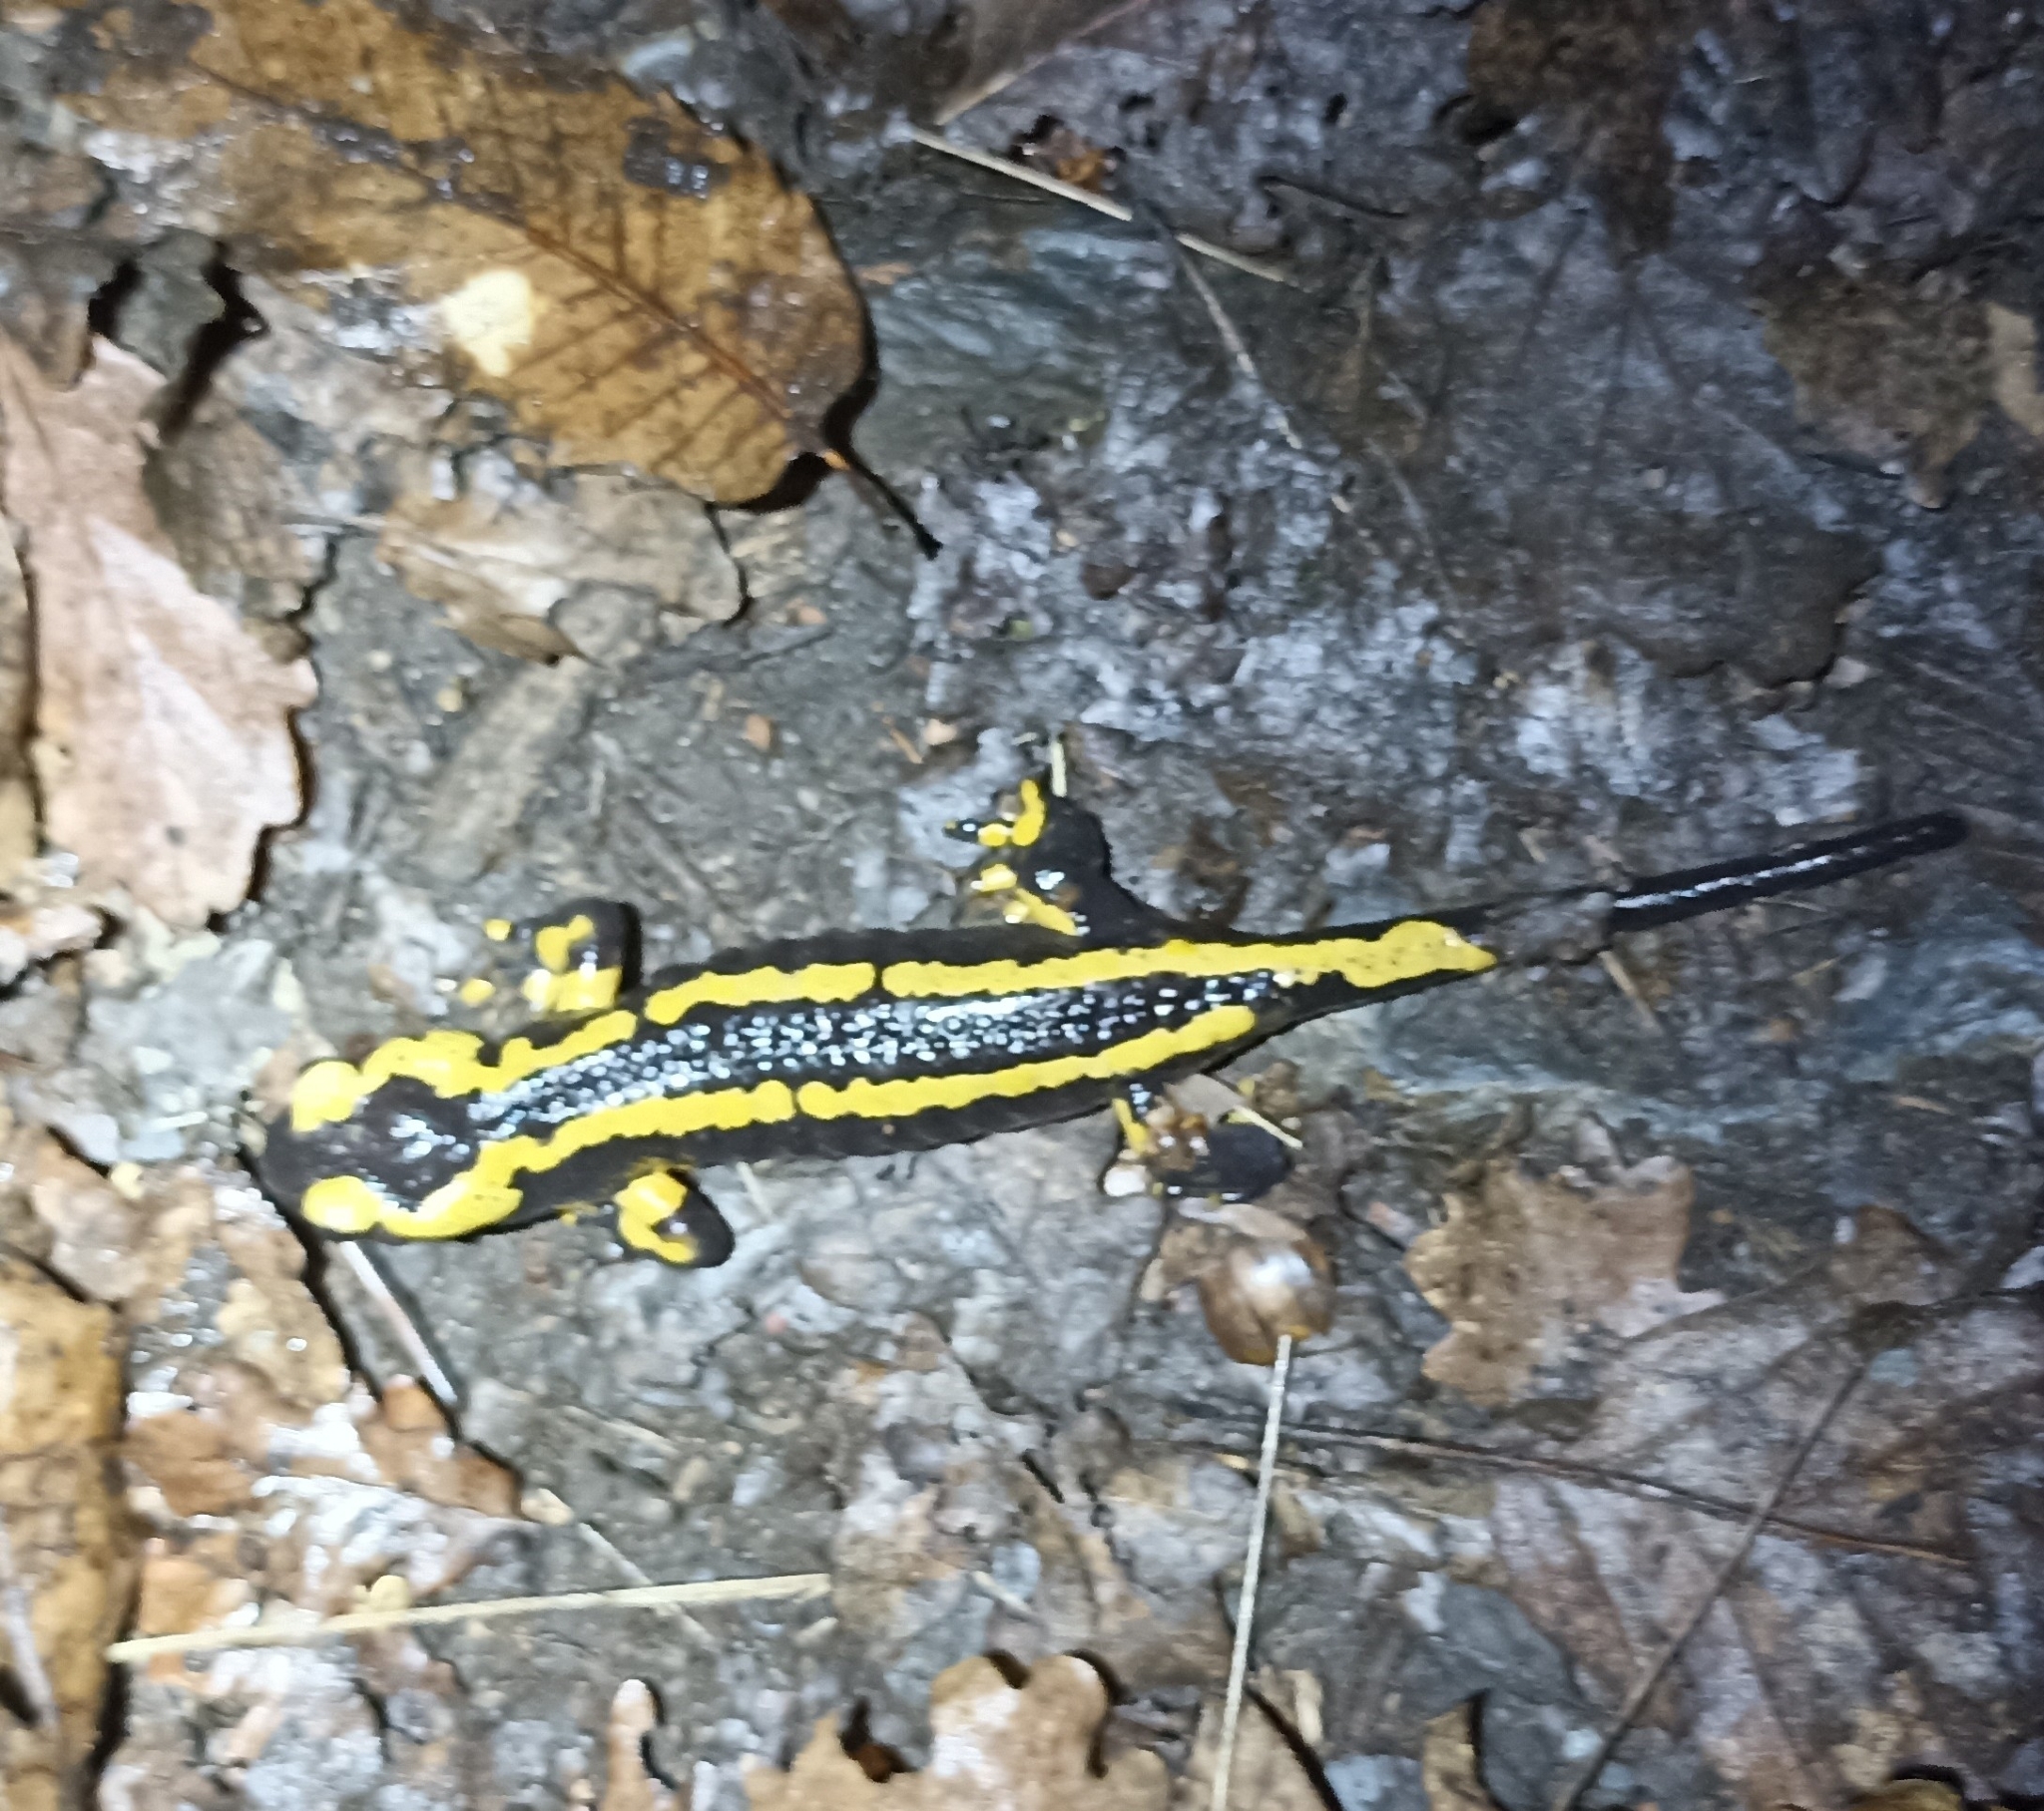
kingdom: Animalia
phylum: Chordata
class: Amphibia
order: Caudata
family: Salamandridae
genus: Salamandra
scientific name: Salamandra salamandra
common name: Fire salamander
